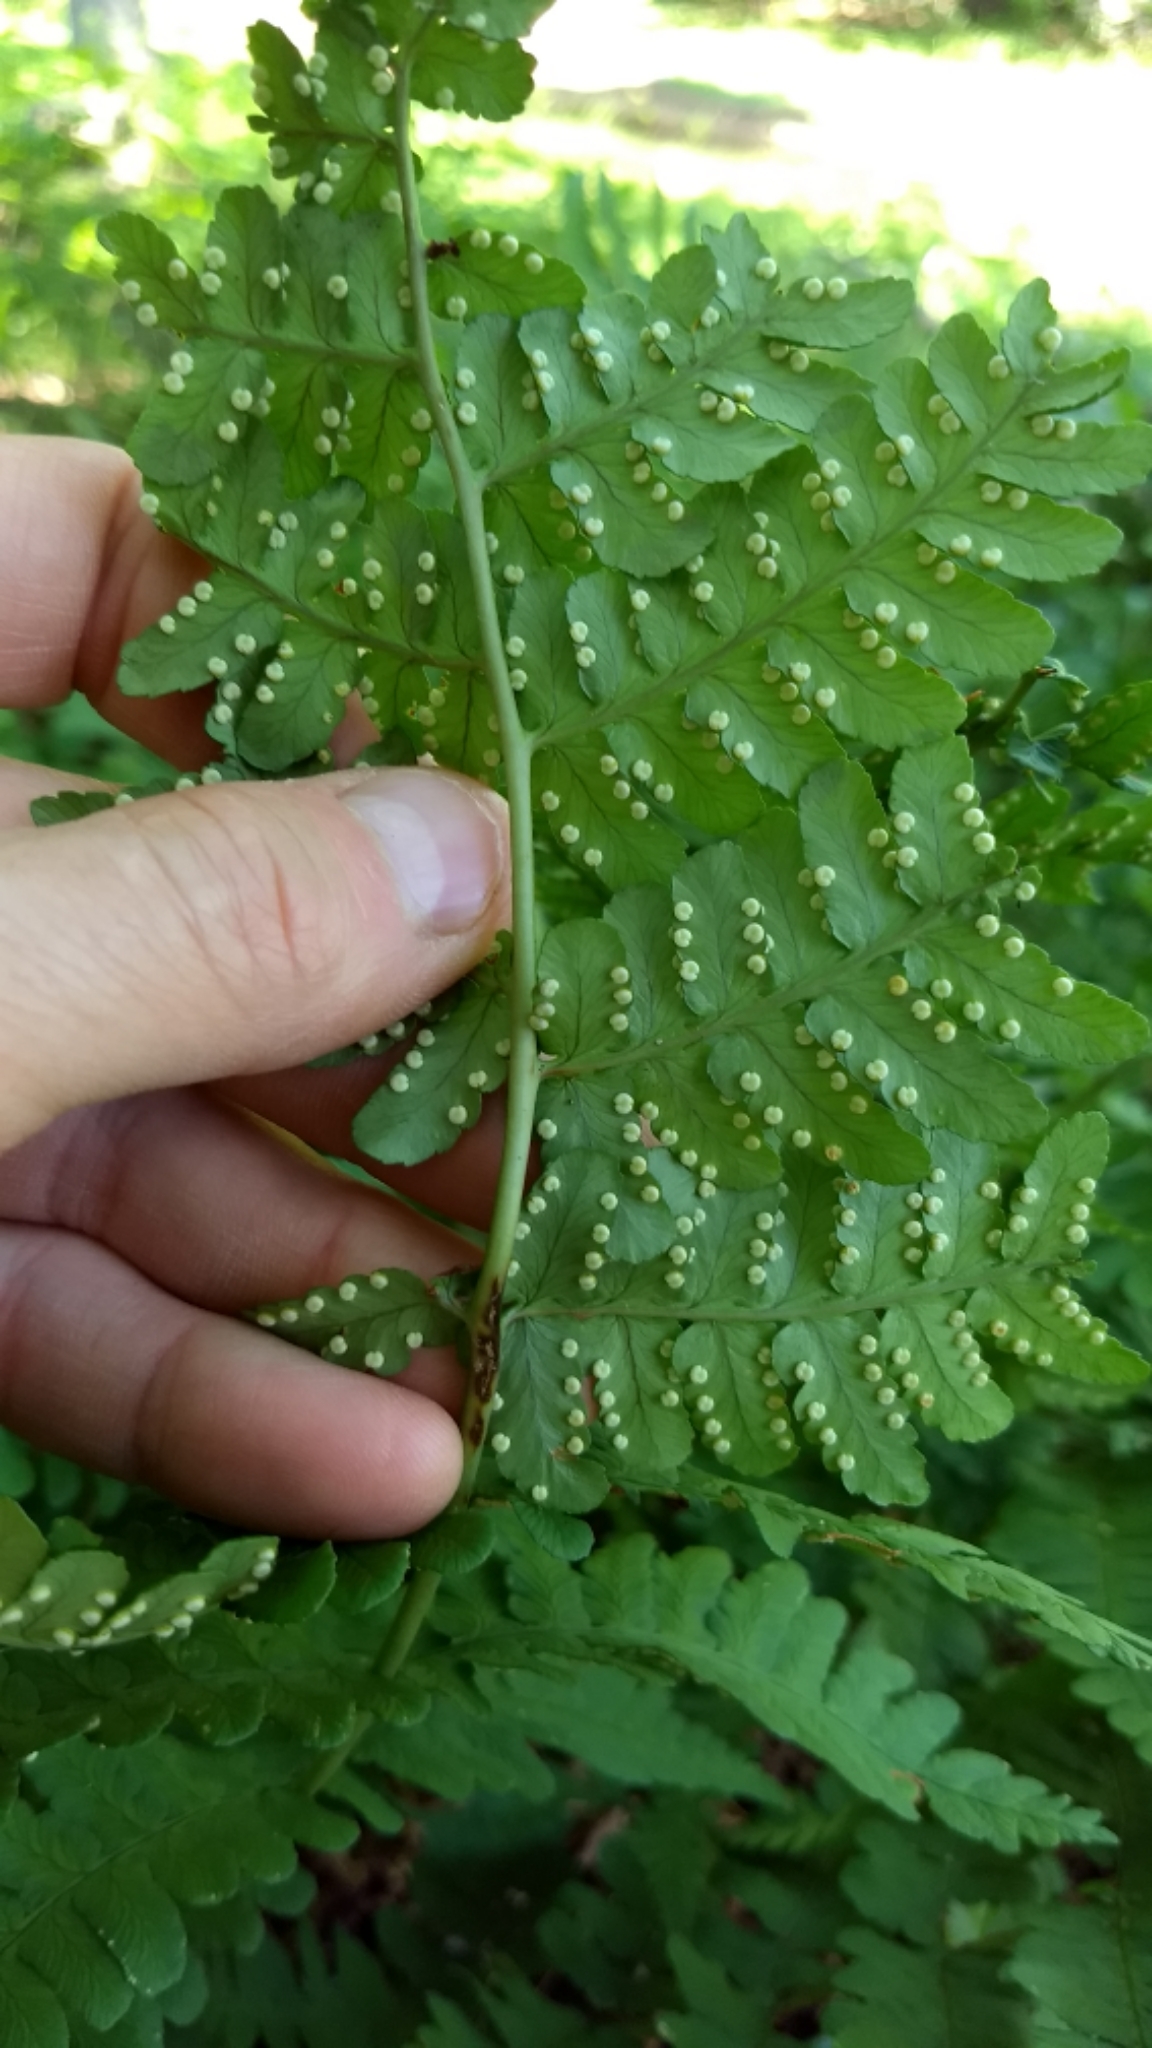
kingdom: Plantae
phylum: Tracheophyta
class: Polypodiopsida
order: Polypodiales
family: Dryopteridaceae
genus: Dryopteris
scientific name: Dryopteris marginalis
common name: Marginal wood fern
